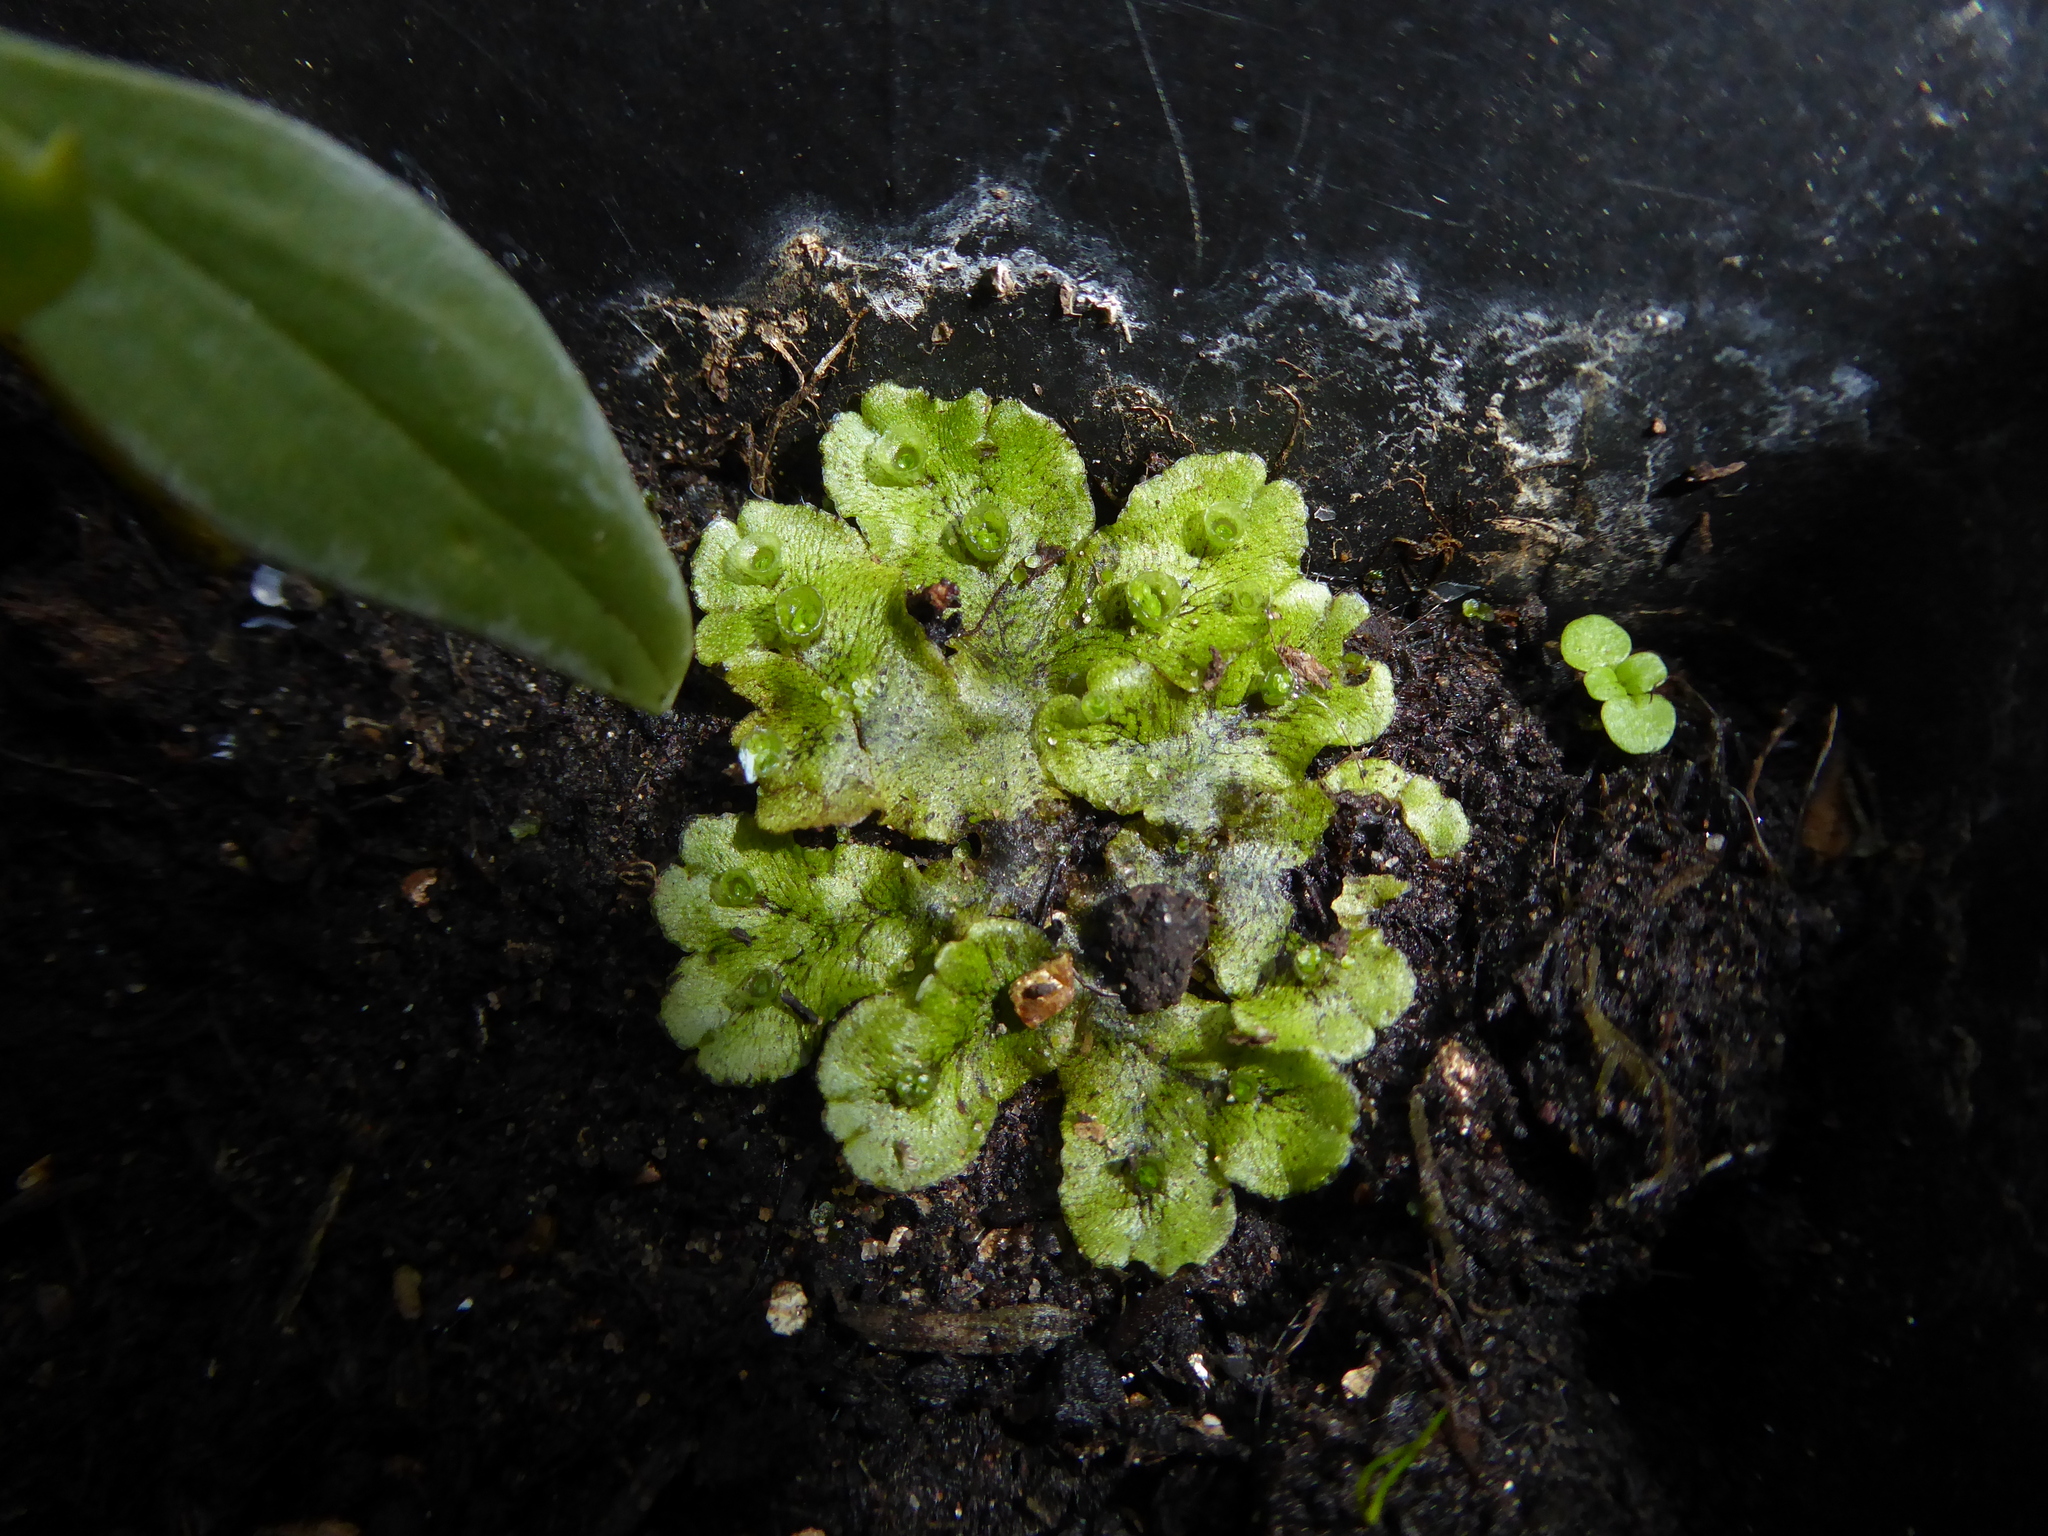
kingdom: Plantae
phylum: Marchantiophyta
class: Marchantiopsida
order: Marchantiales
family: Marchantiaceae
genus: Marchantia
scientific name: Marchantia polymorpha
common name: Common liverwort
